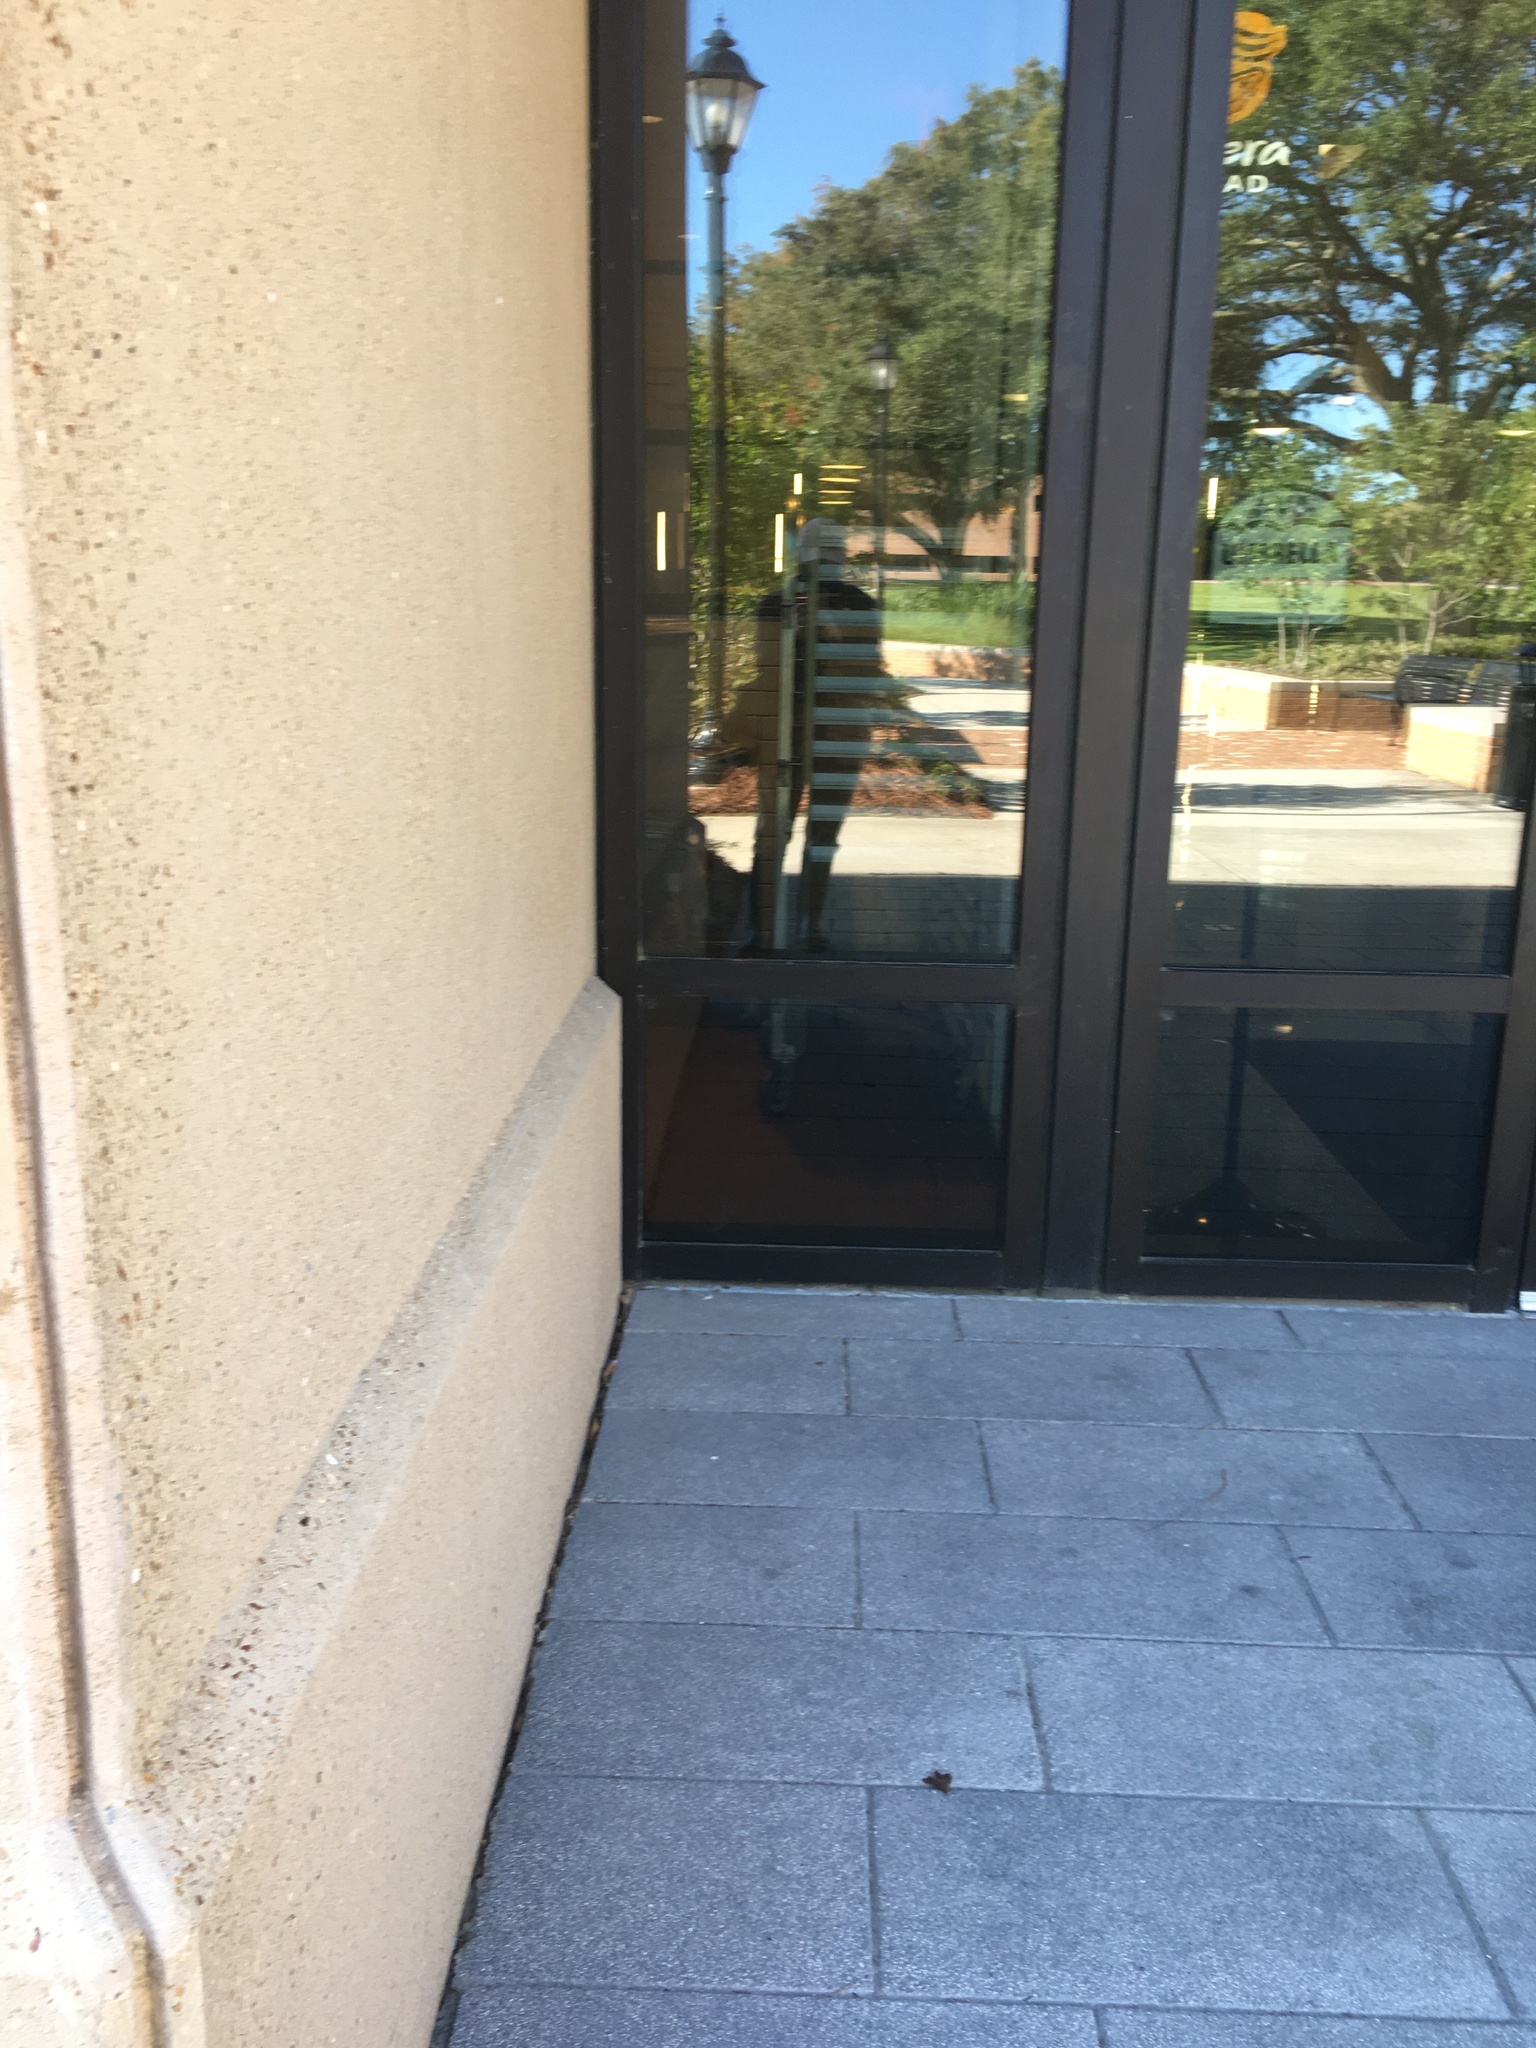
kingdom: Animalia
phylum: Chordata
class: Aves
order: Apodiformes
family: Trochilidae
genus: Archilochus
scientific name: Archilochus colubris
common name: Ruby-throated hummingbird
